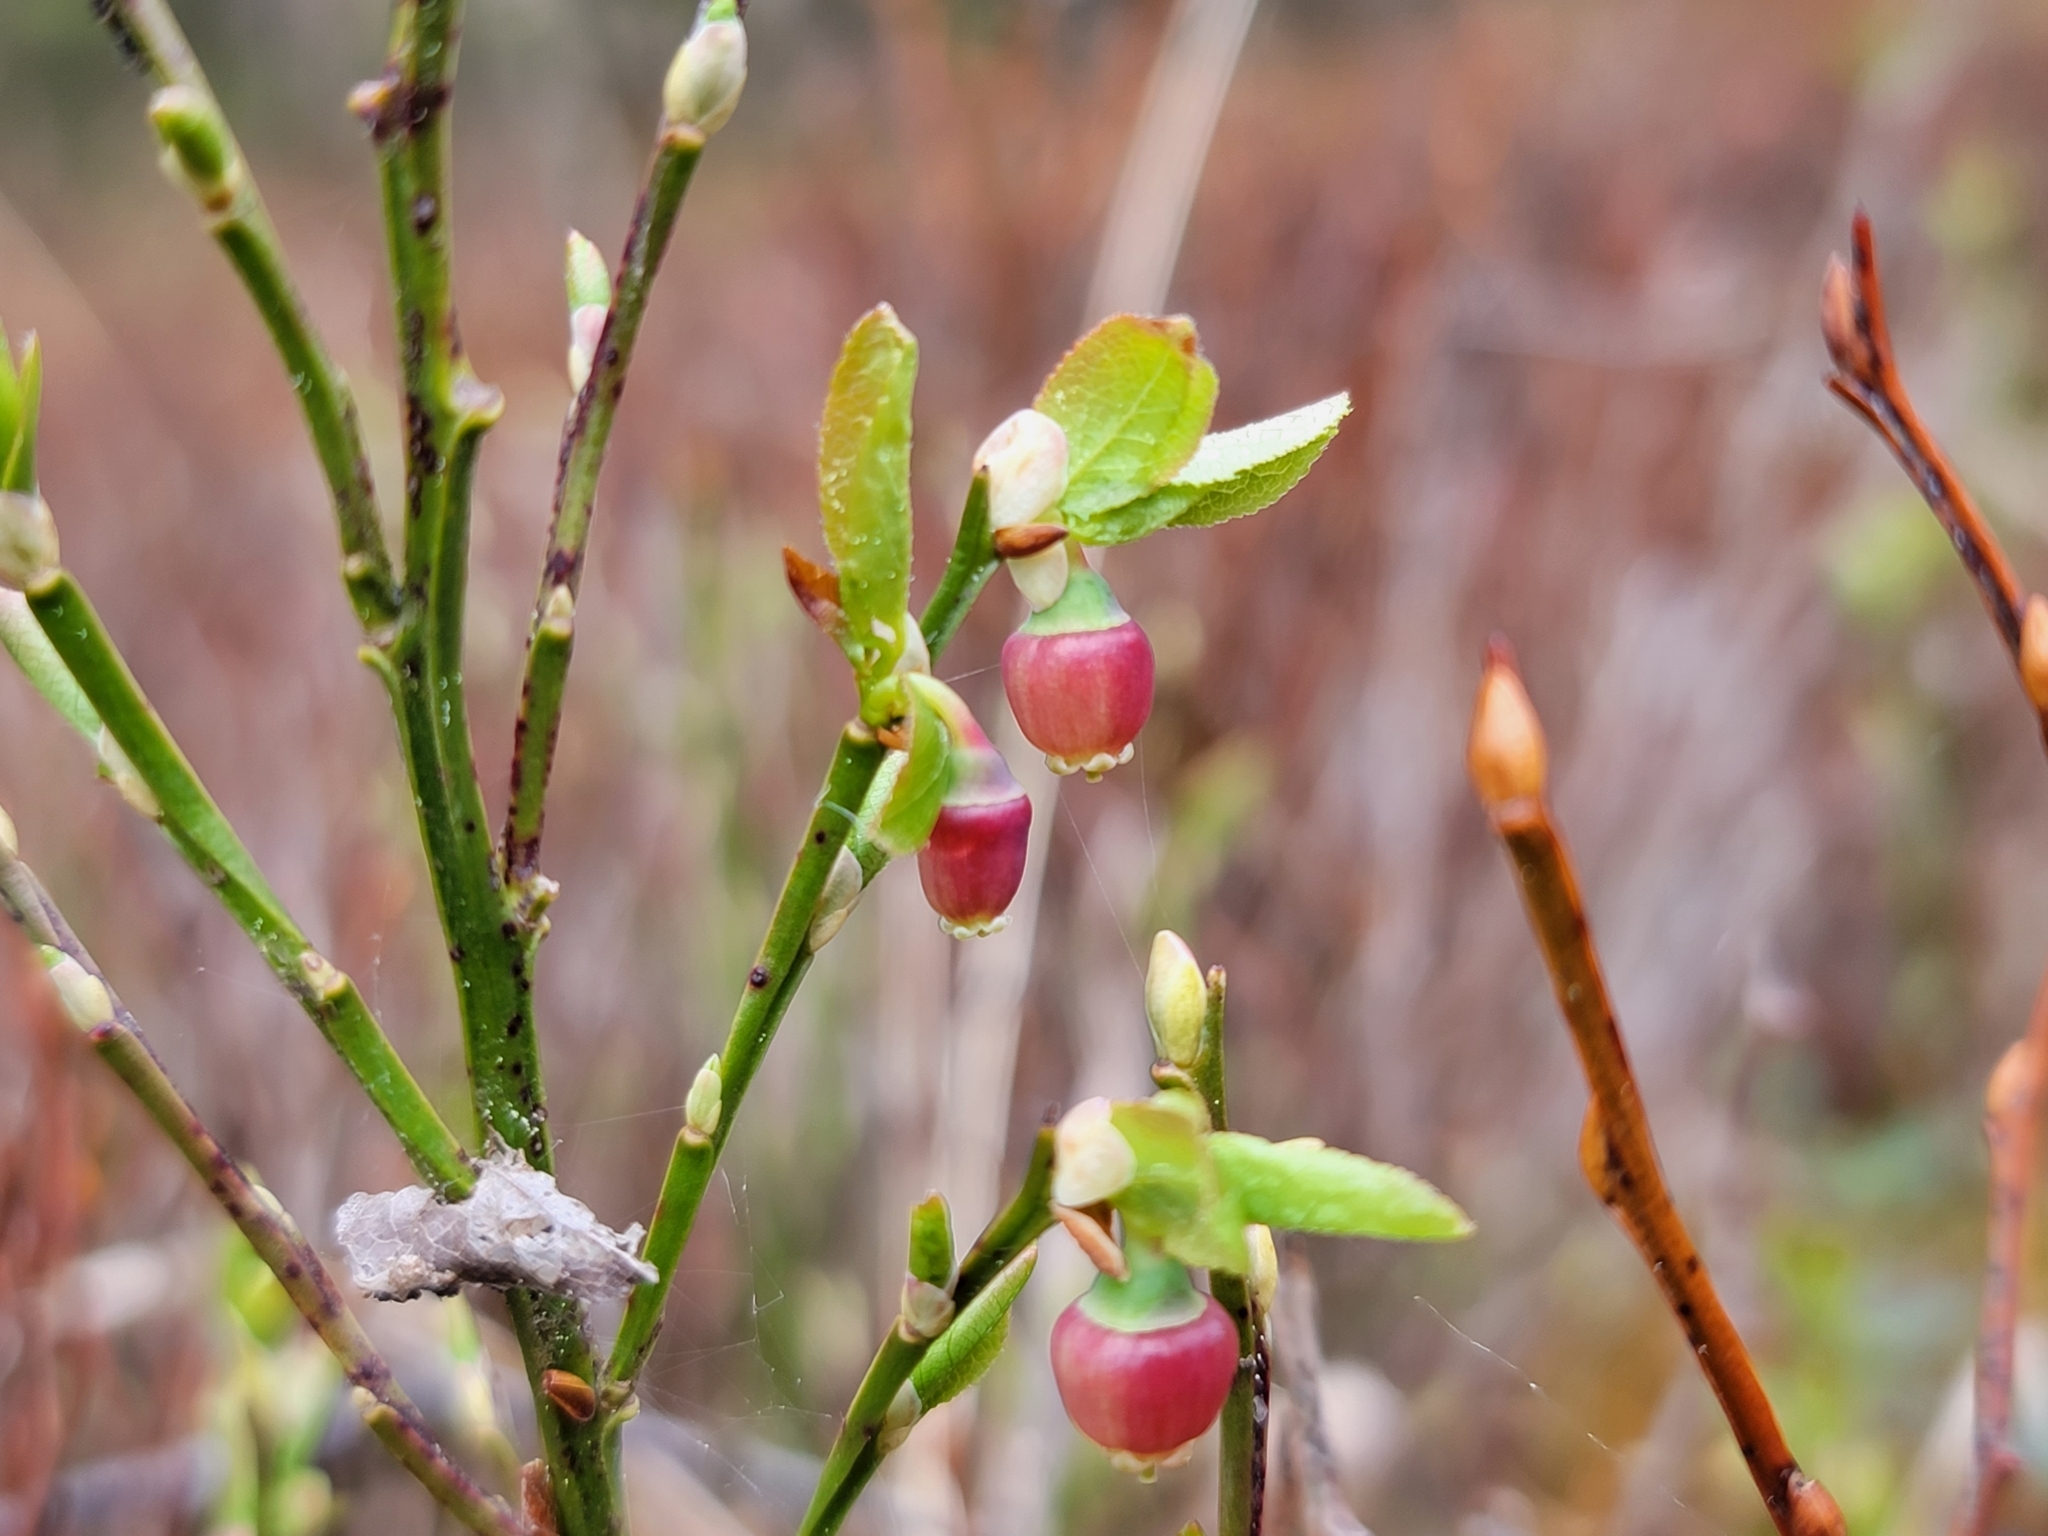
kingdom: Plantae
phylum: Tracheophyta
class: Magnoliopsida
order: Ericales
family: Ericaceae
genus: Vaccinium
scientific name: Vaccinium myrtillus
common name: Bilberry
